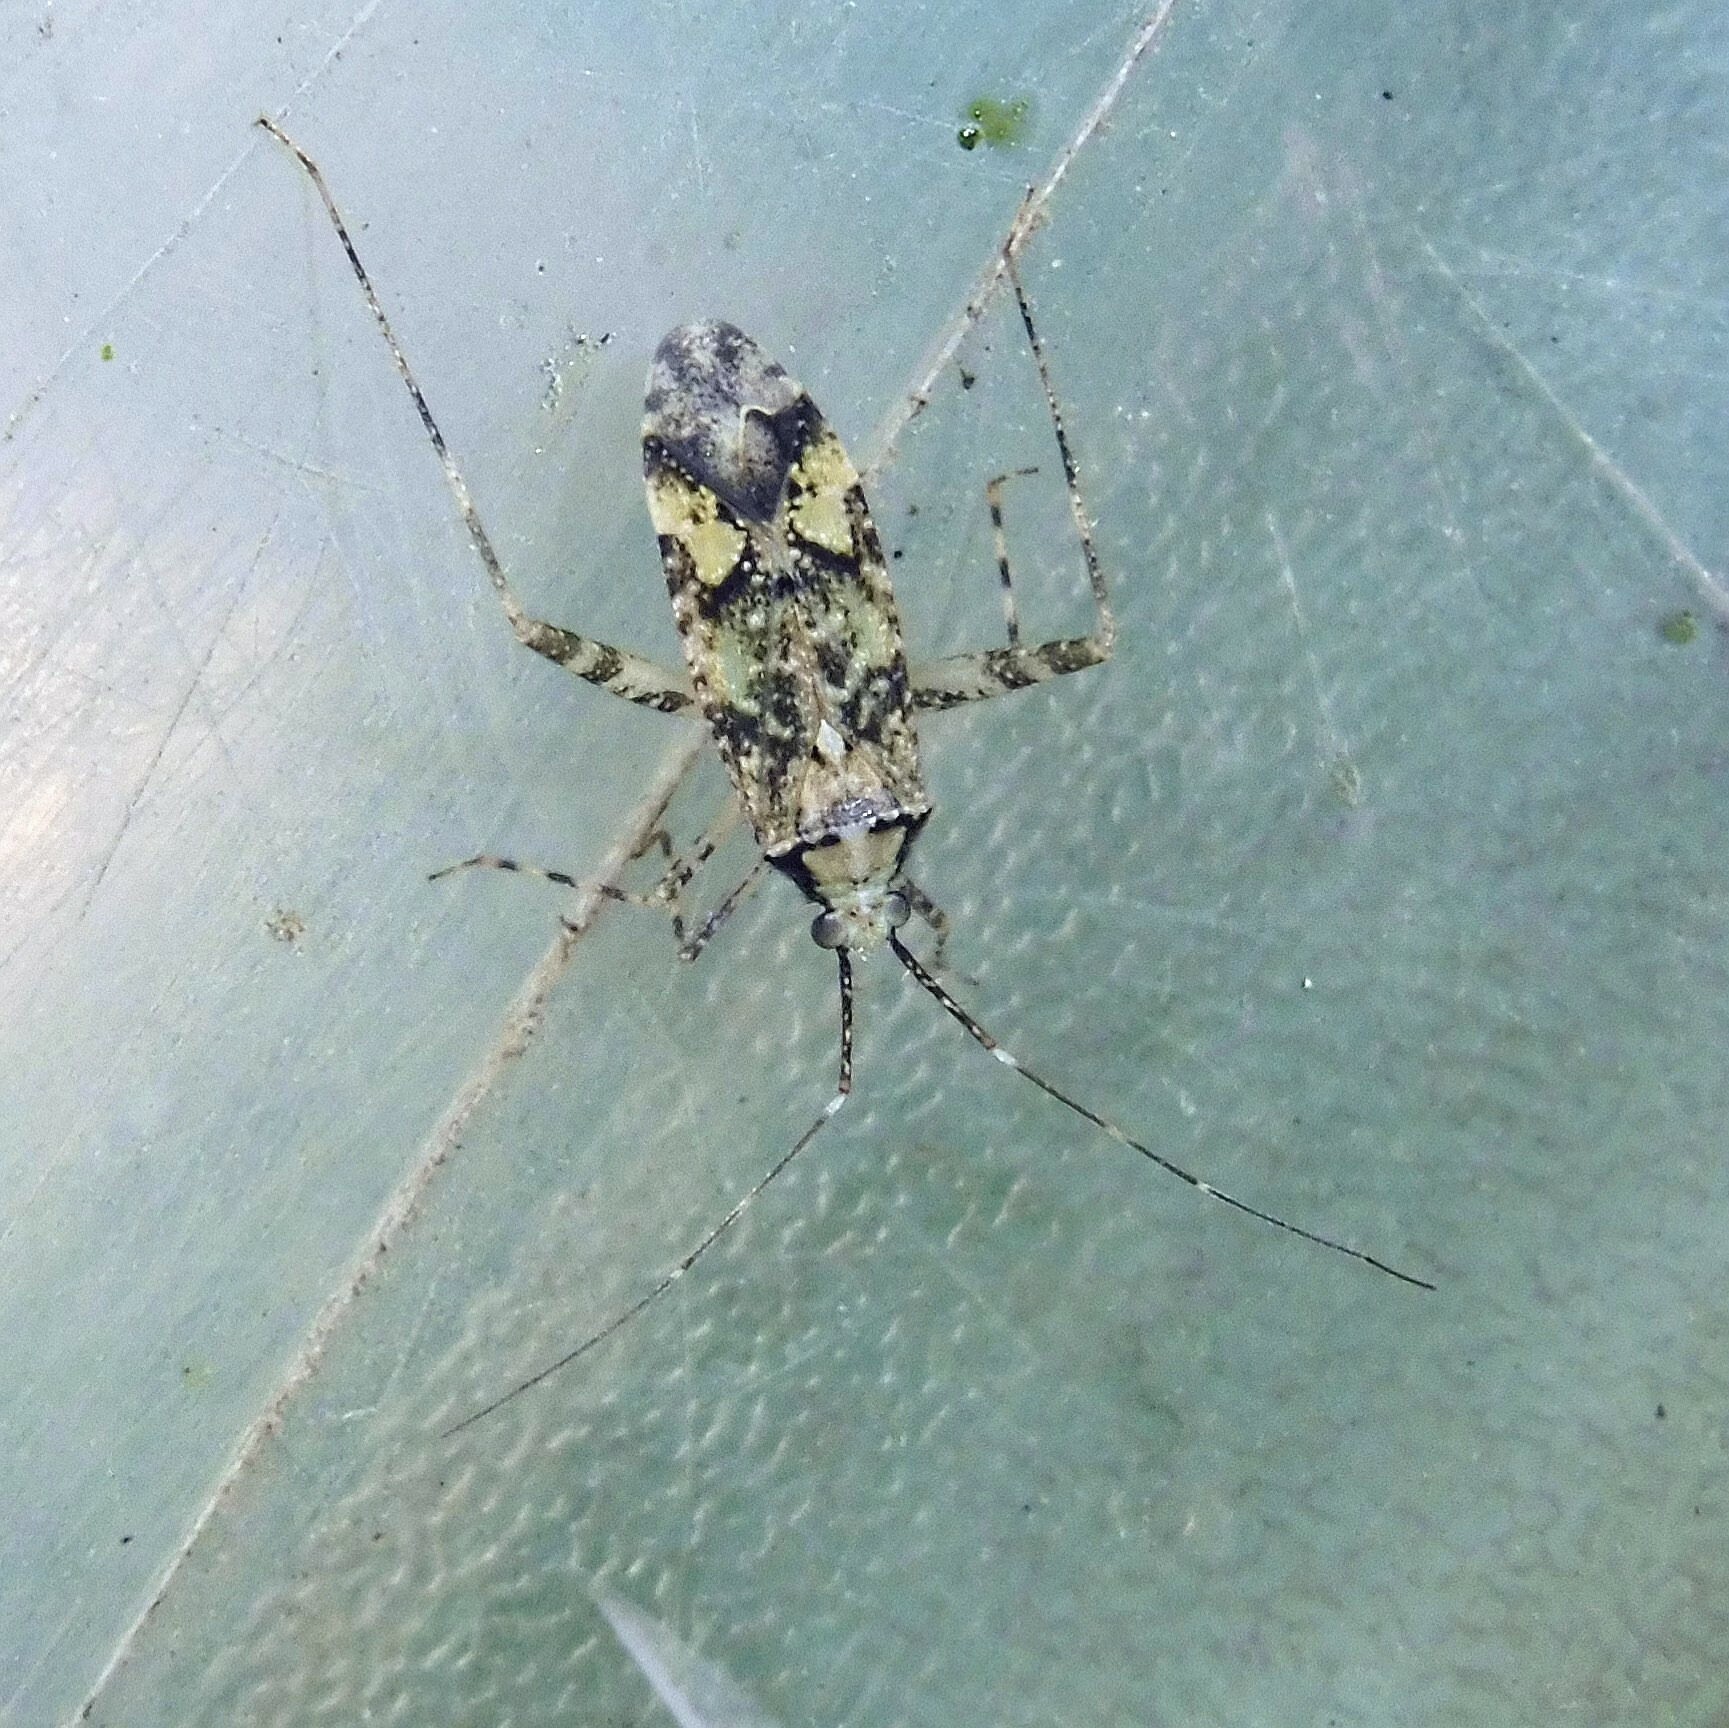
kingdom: Animalia
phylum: Arthropoda
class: Insecta
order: Hemiptera
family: Miridae
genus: Phytocoris
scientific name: Phytocoris tiliae
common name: Plant bug
